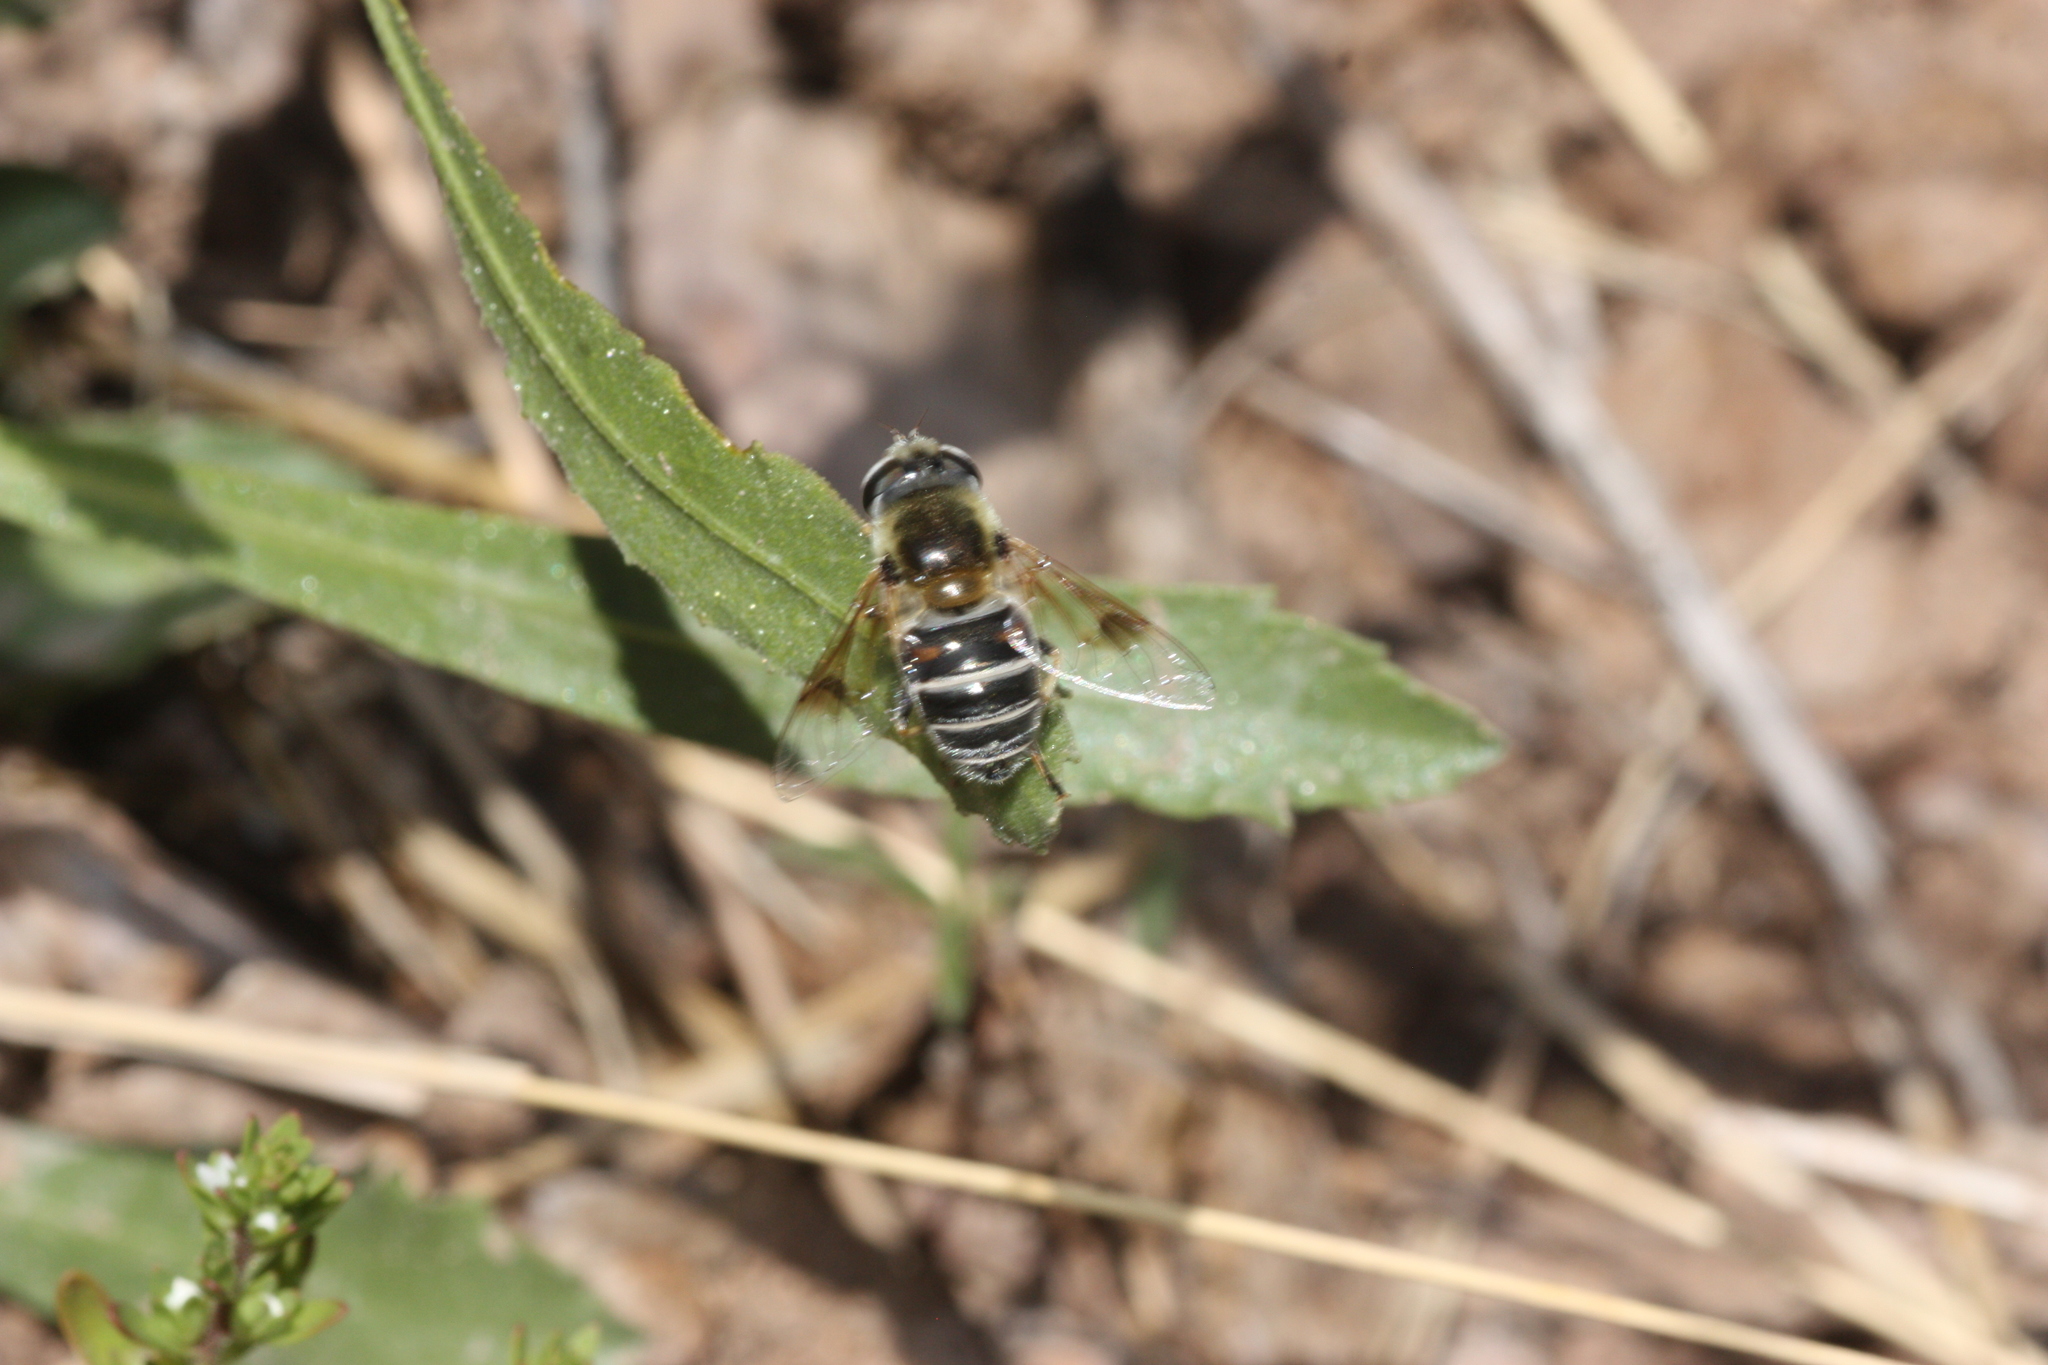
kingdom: Animalia
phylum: Arthropoda
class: Insecta
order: Diptera
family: Syrphidae
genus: Eristalis
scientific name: Eristalis stipator
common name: Yellow-shouldered drone fly
